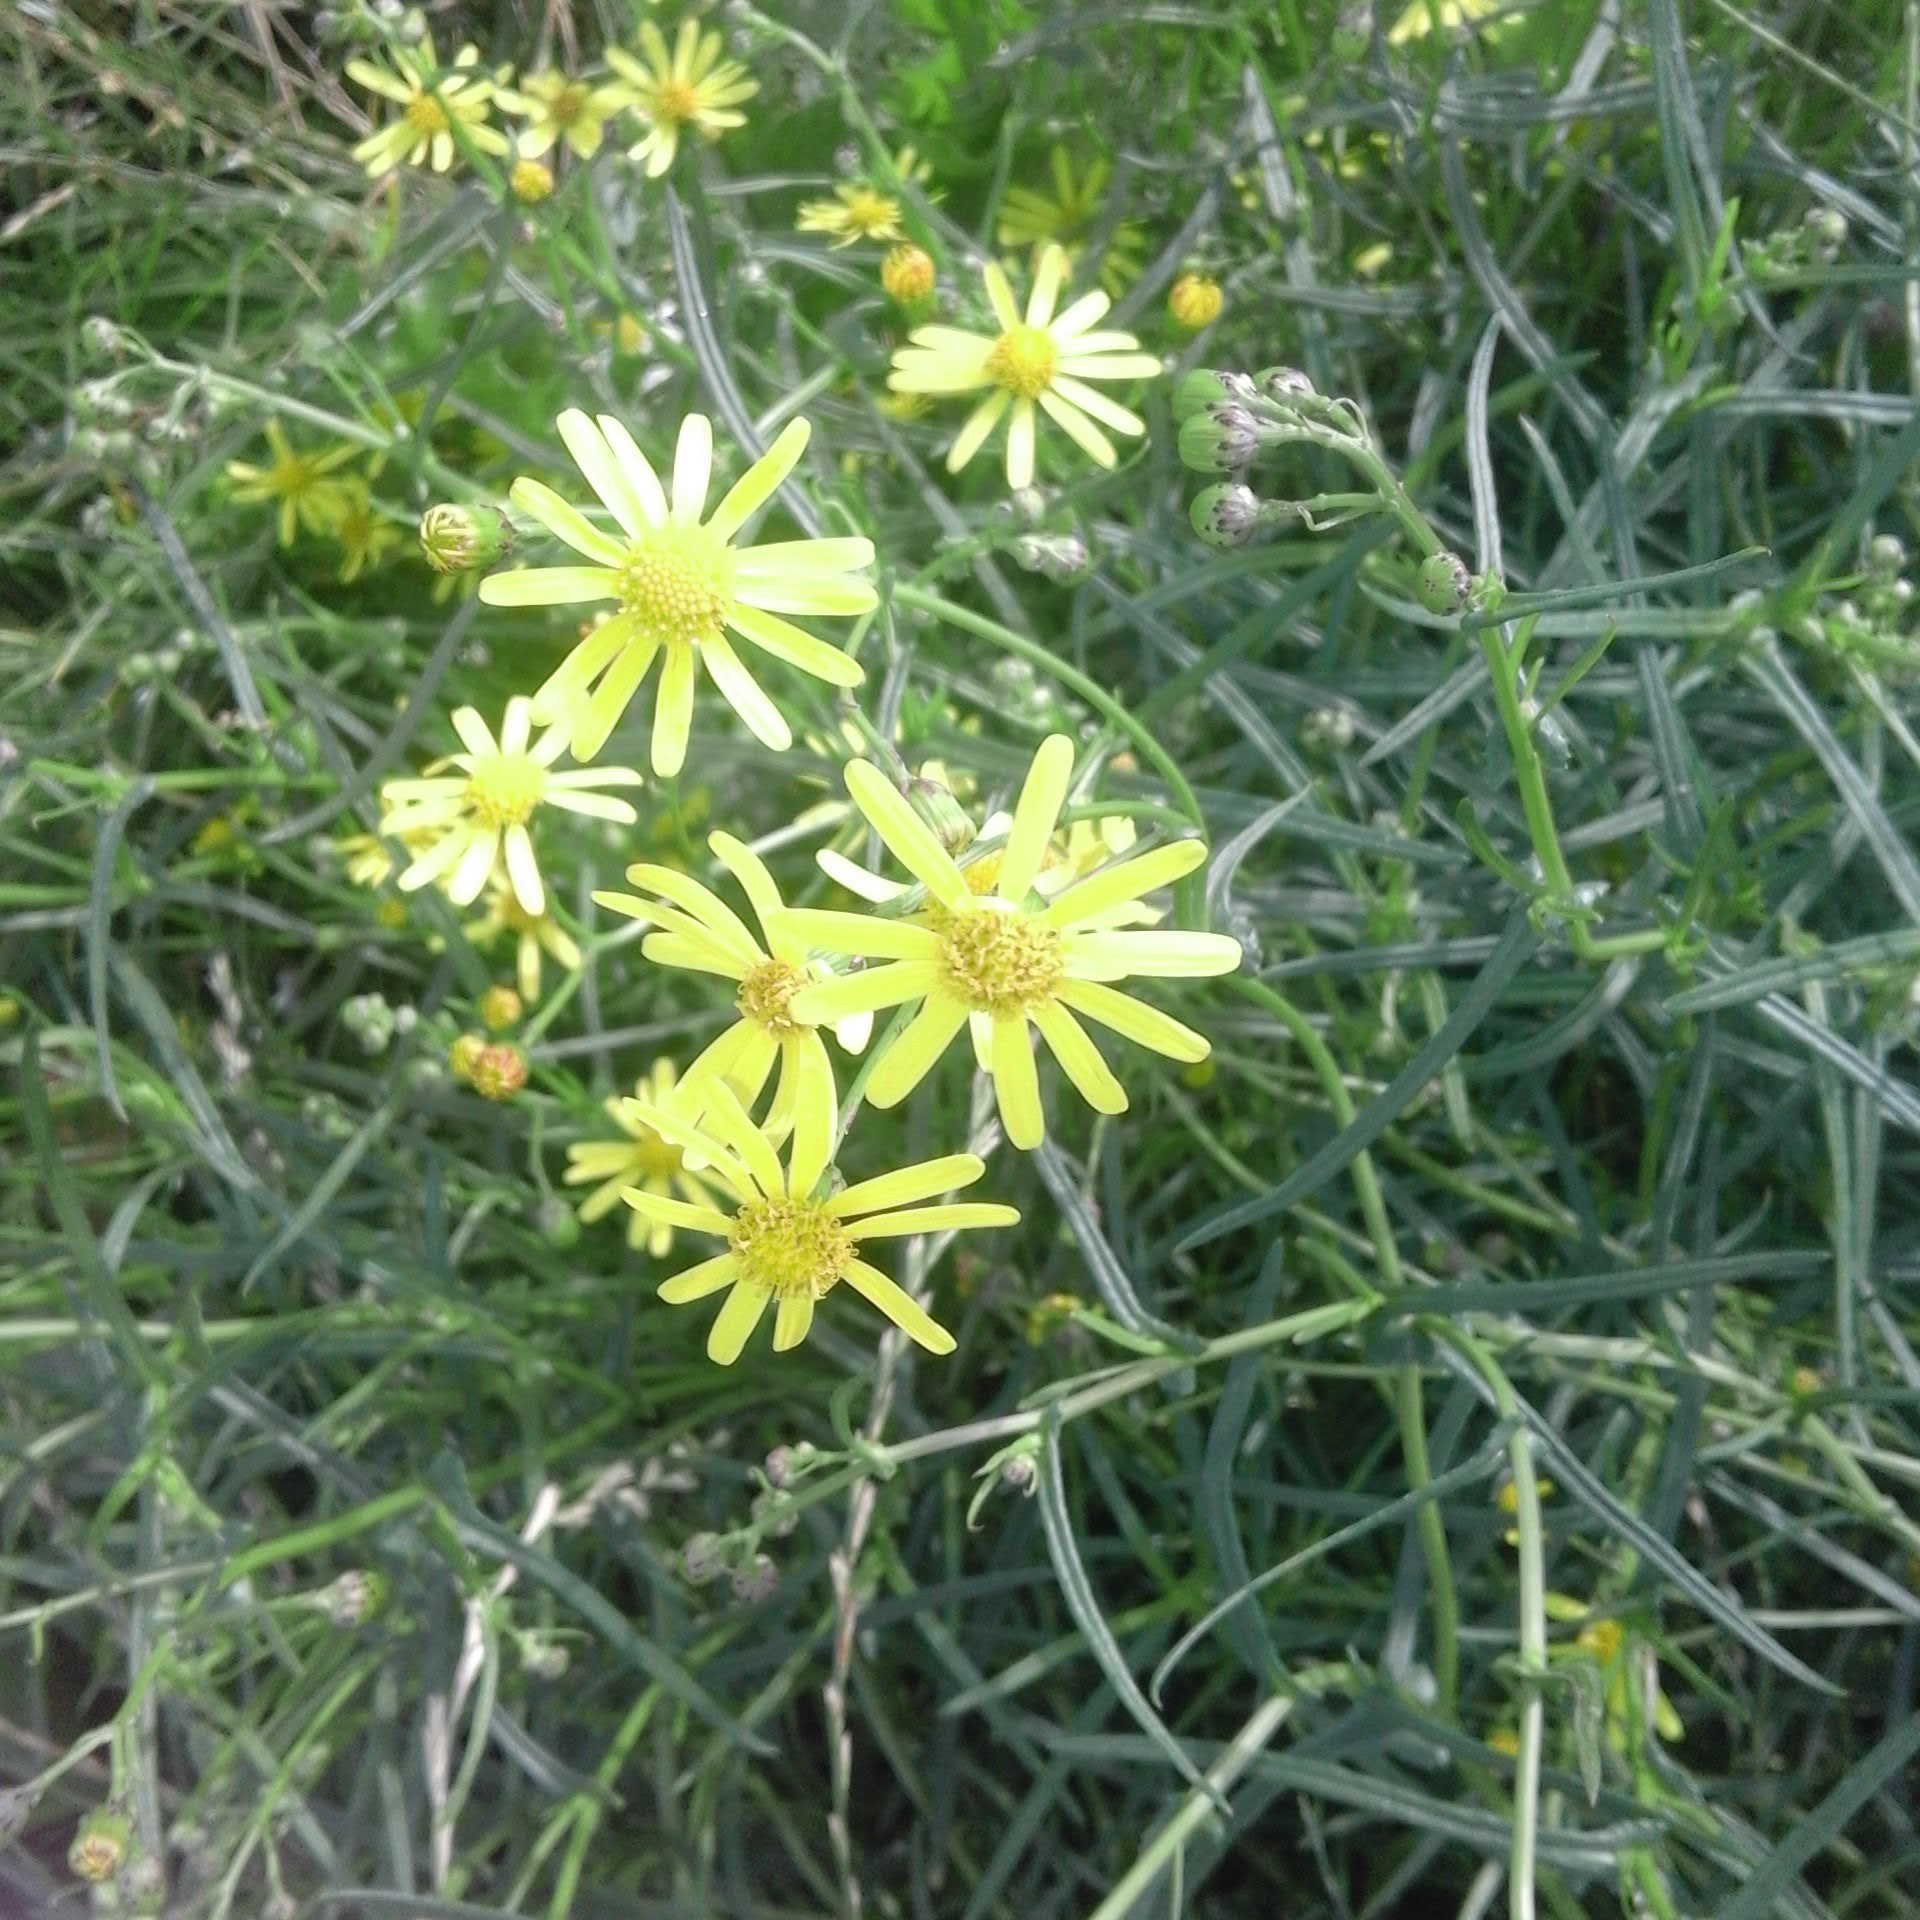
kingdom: Plantae
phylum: Tracheophyta
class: Magnoliopsida
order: Asterales
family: Asteraceae
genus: Senecio
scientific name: Senecio inaequidens
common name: Narrow-leaved ragwort
